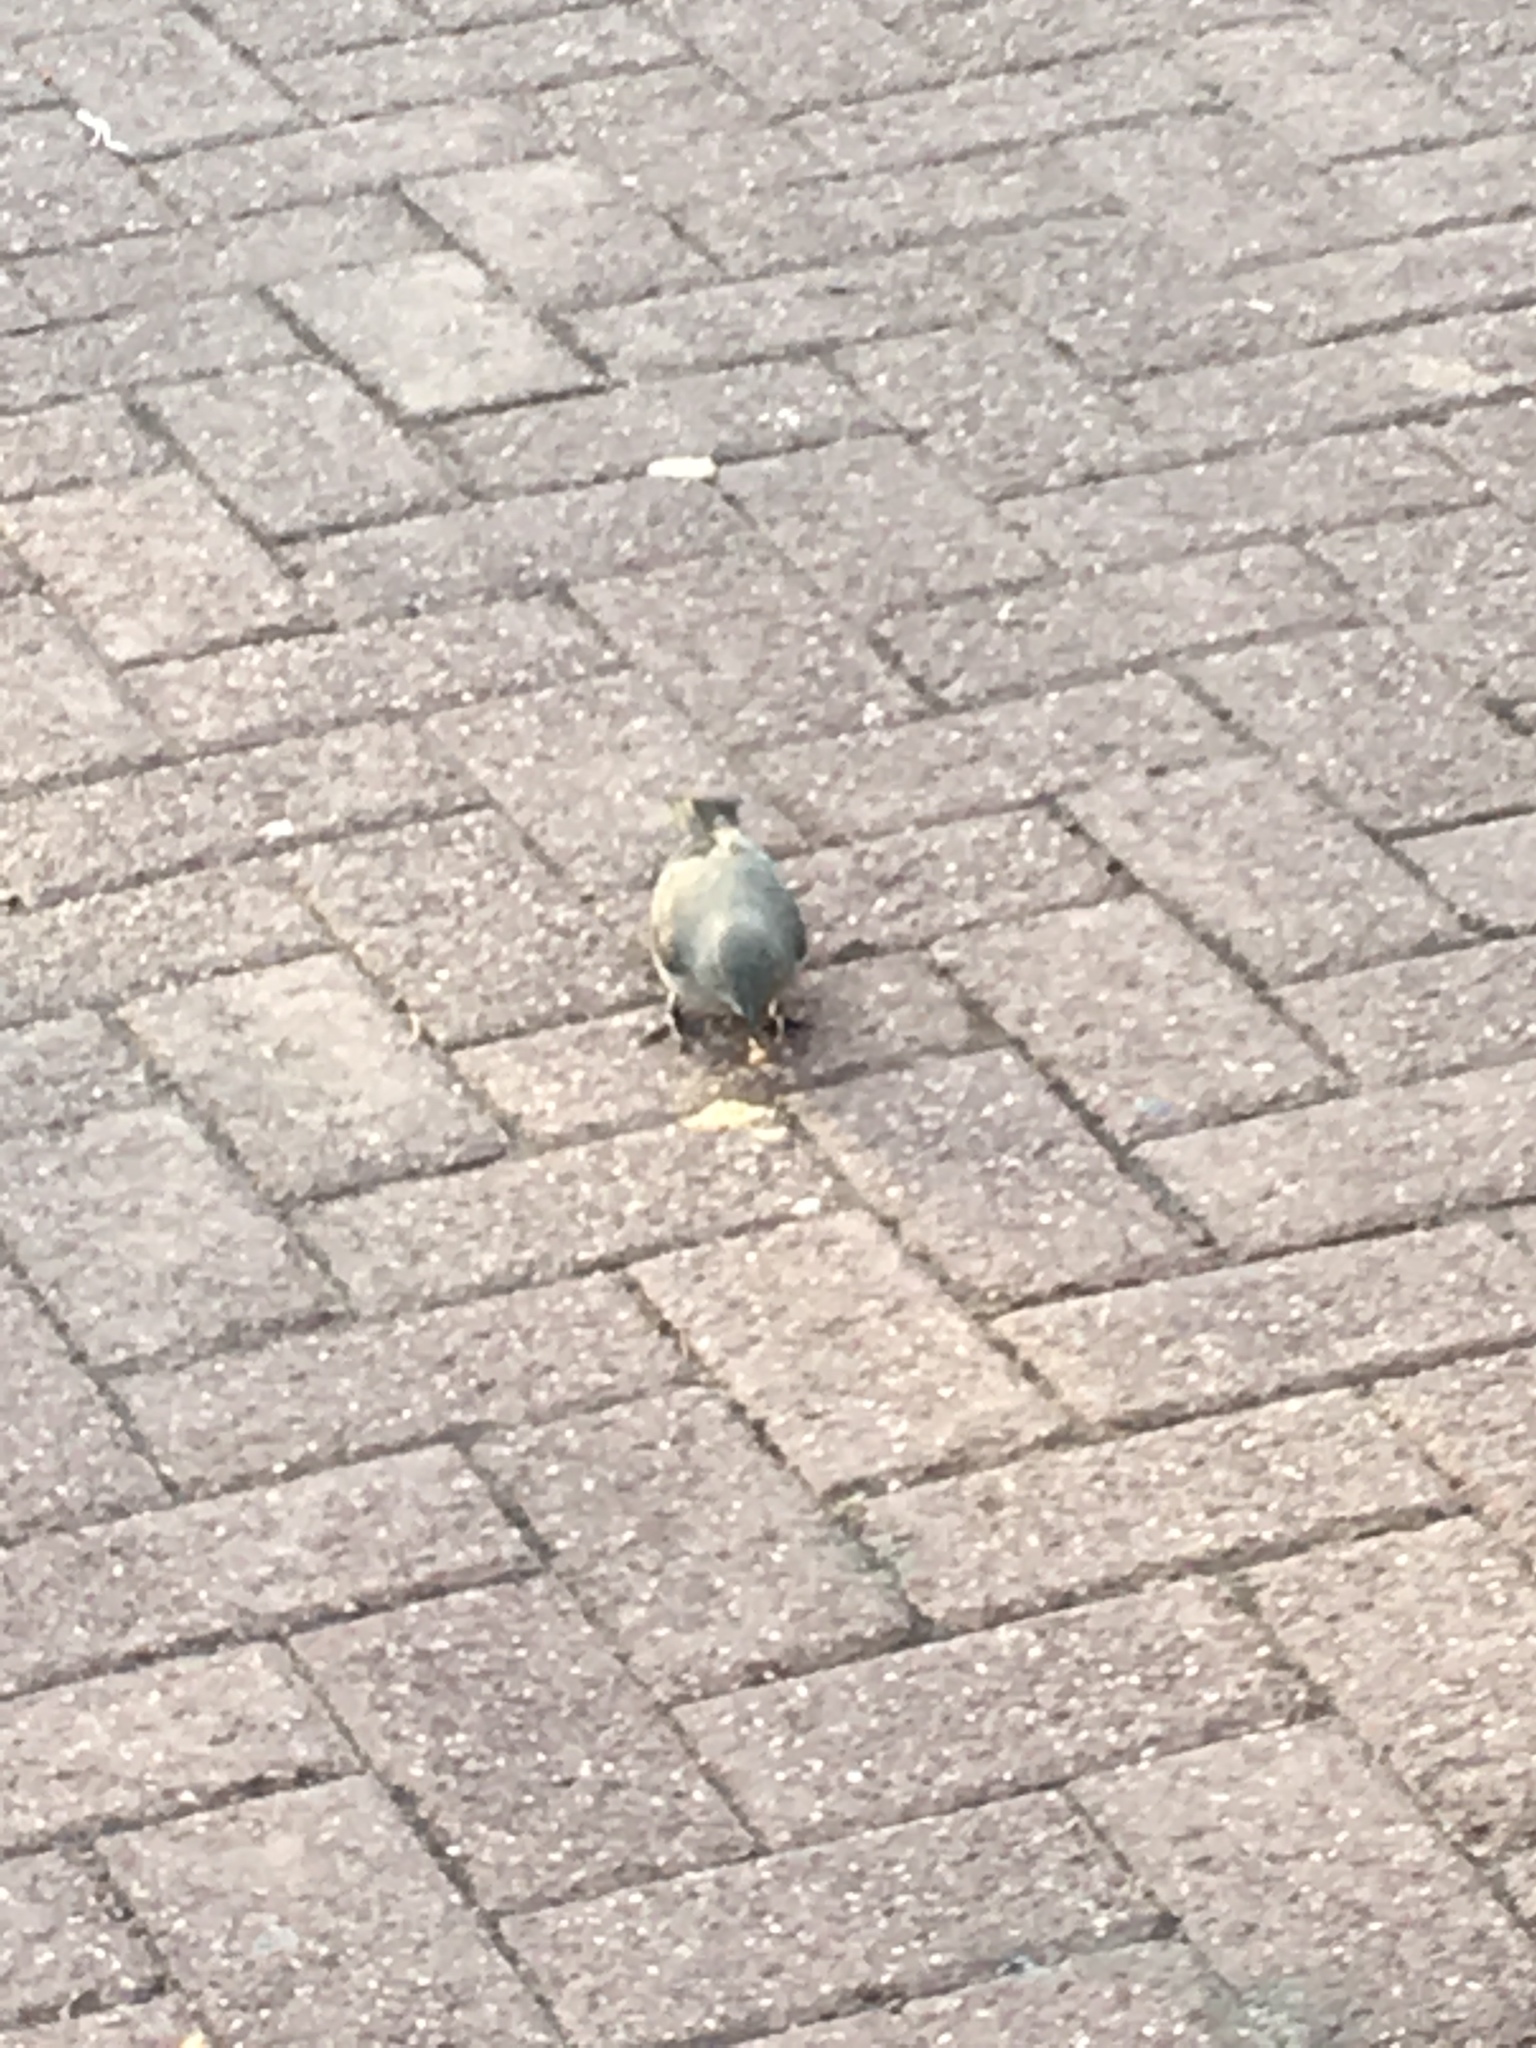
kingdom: Animalia
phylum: Chordata
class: Aves
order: Passeriformes
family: Mimidae
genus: Mimus
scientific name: Mimus polyglottos
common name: Northern mockingbird
